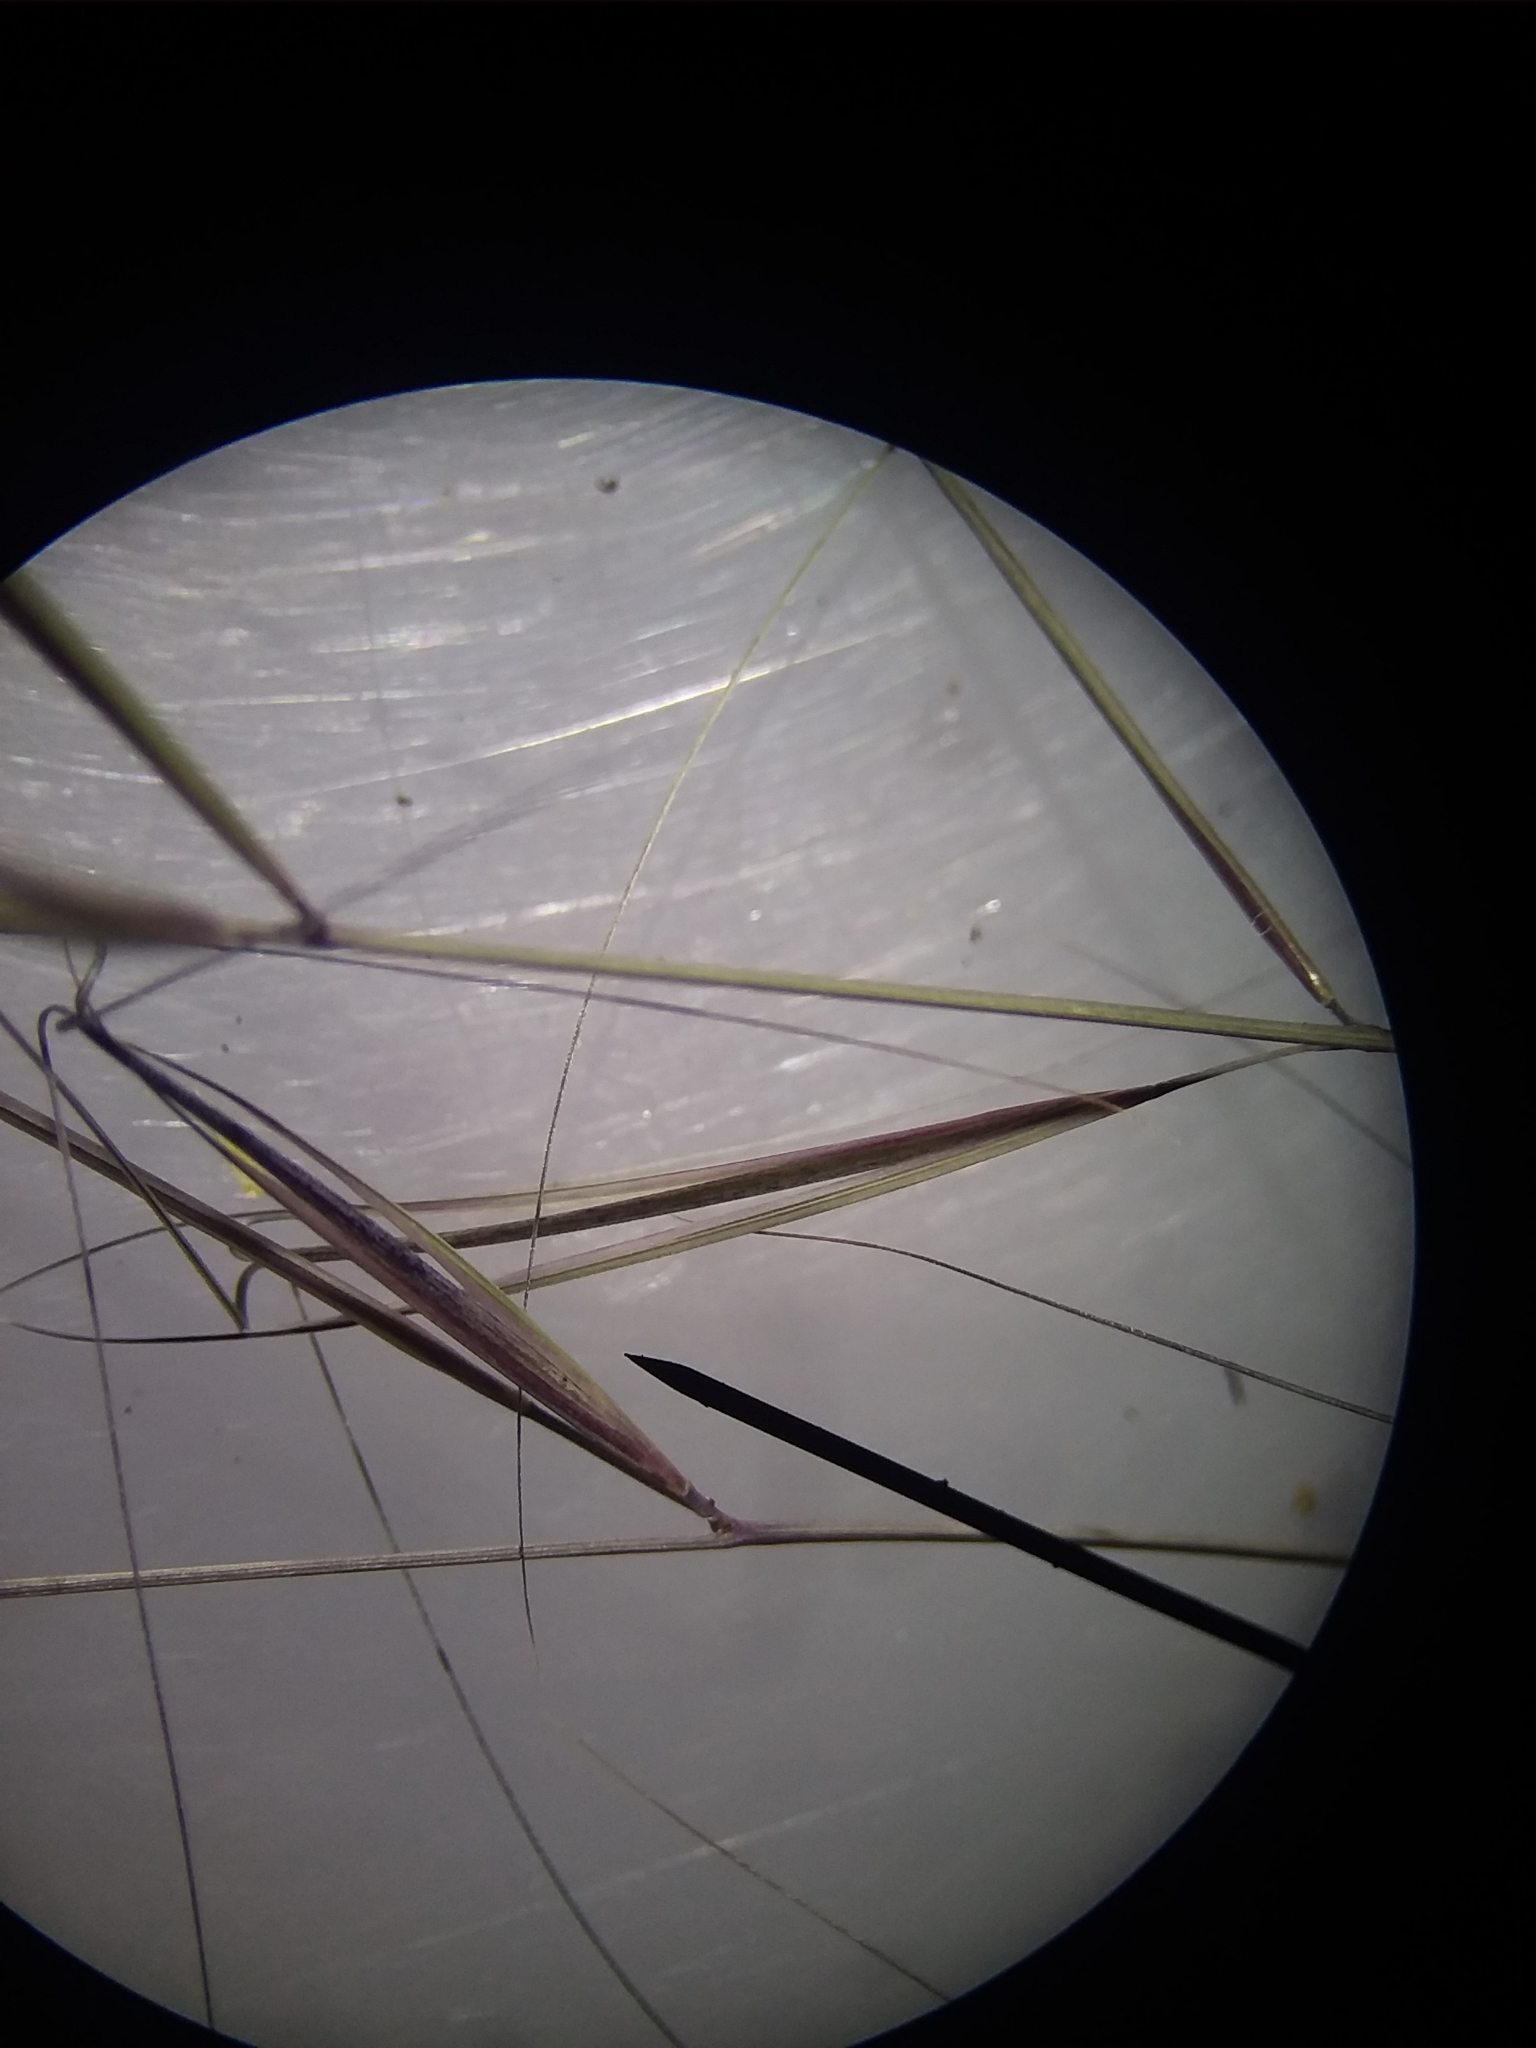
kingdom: Plantae
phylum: Tracheophyta
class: Liliopsida
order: Poales
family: Poaceae
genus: Aristida
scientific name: Aristida oligantha
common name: Few-flowered aristida
